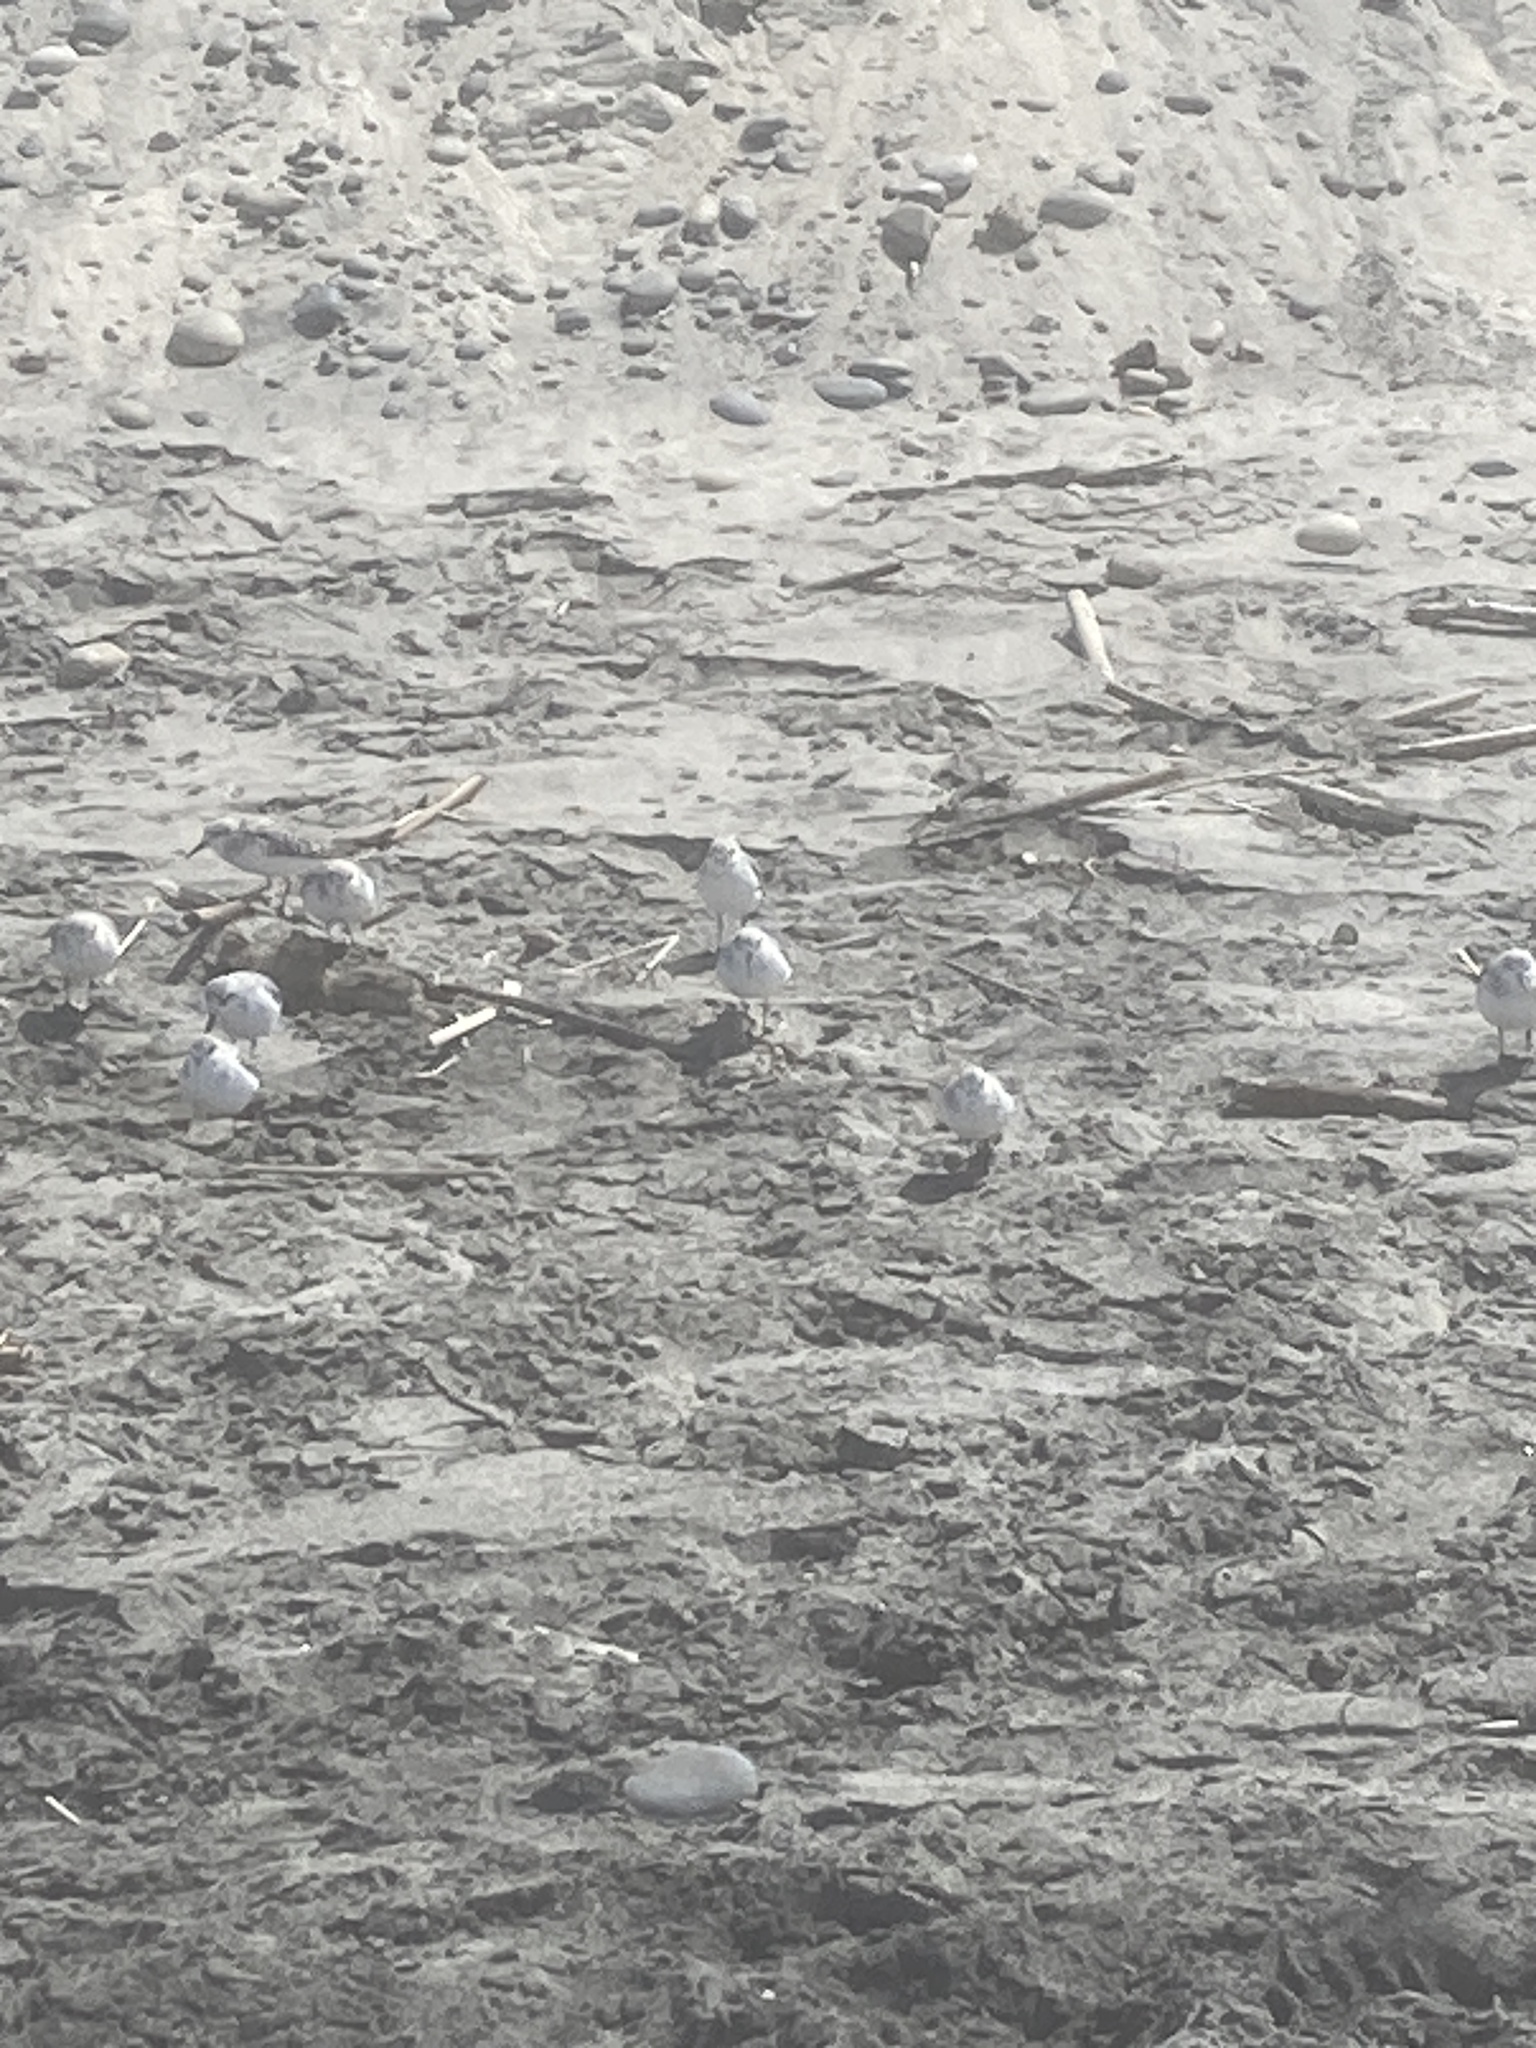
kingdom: Animalia
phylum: Chordata
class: Aves
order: Charadriiformes
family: Scolopacidae
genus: Calidris
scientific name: Calidris alba
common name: Sanderling
